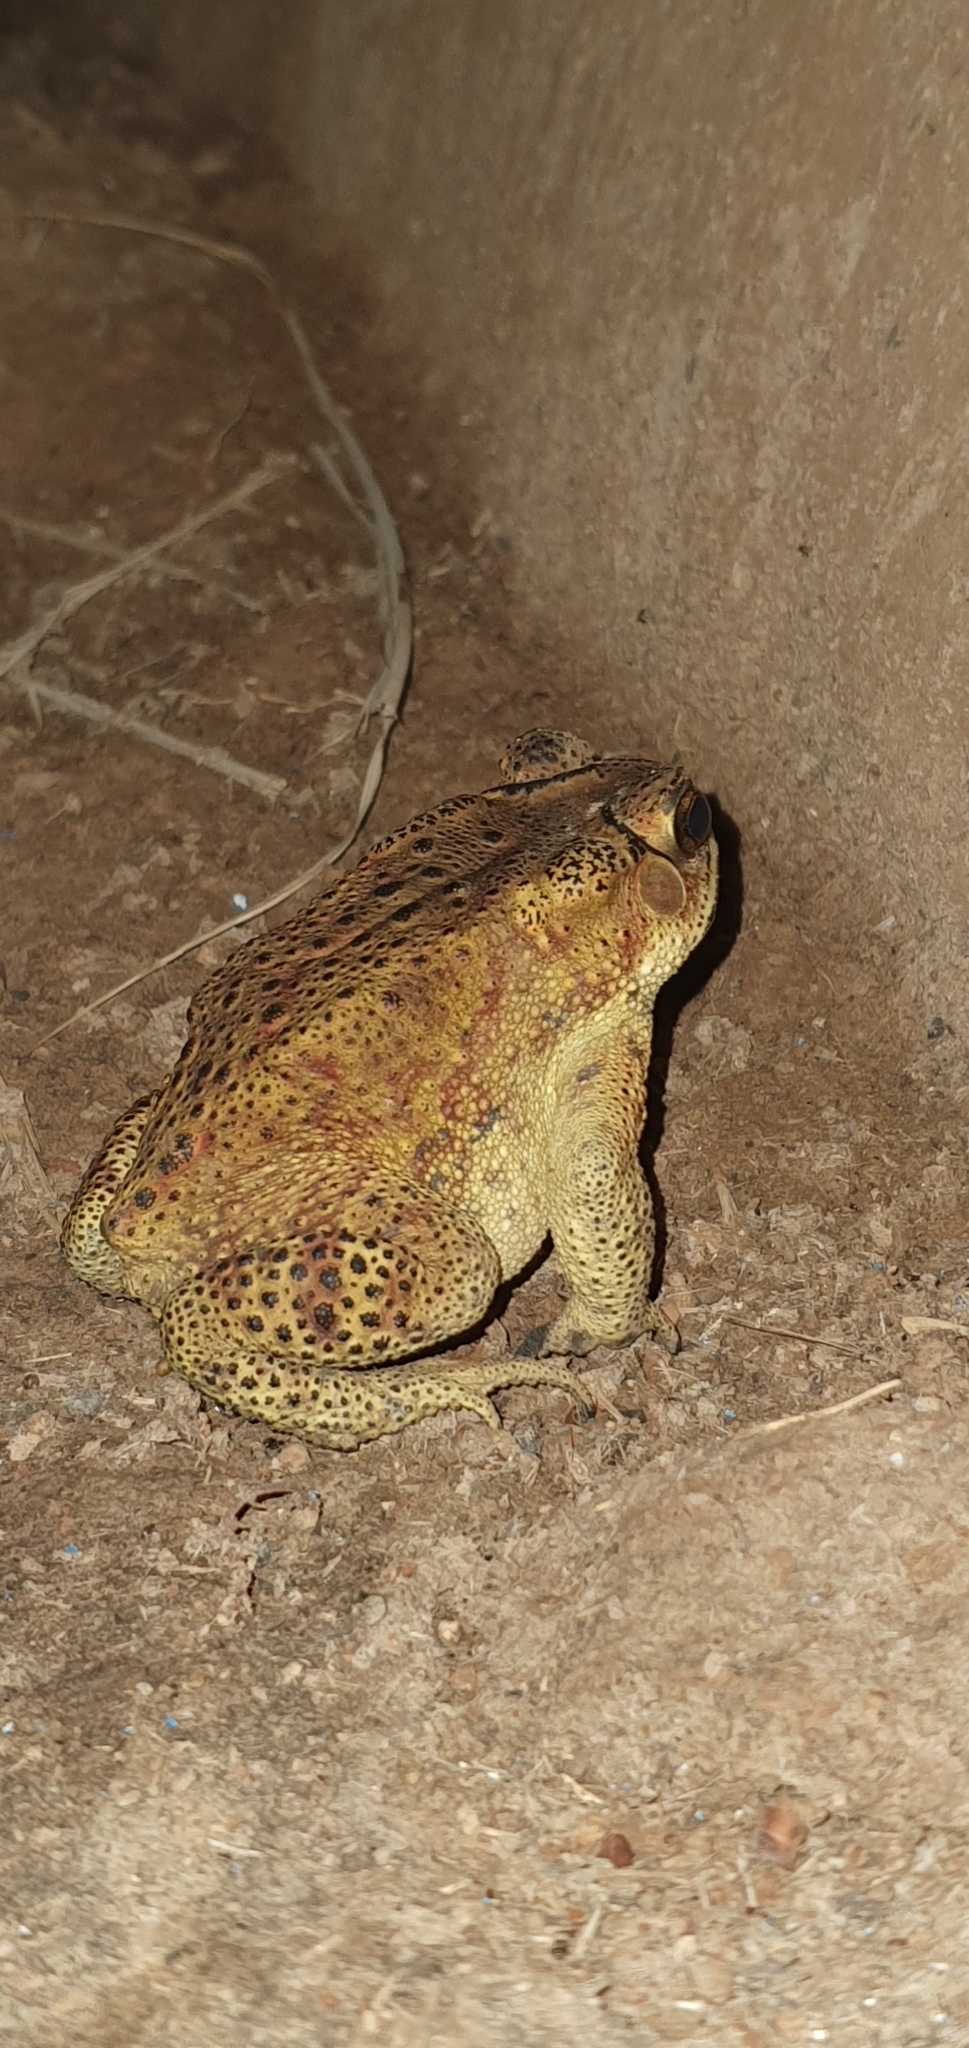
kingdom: Animalia
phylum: Chordata
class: Amphibia
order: Anura
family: Bufonidae
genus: Duttaphrynus
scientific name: Duttaphrynus melanostictus
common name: Common sunda toad
